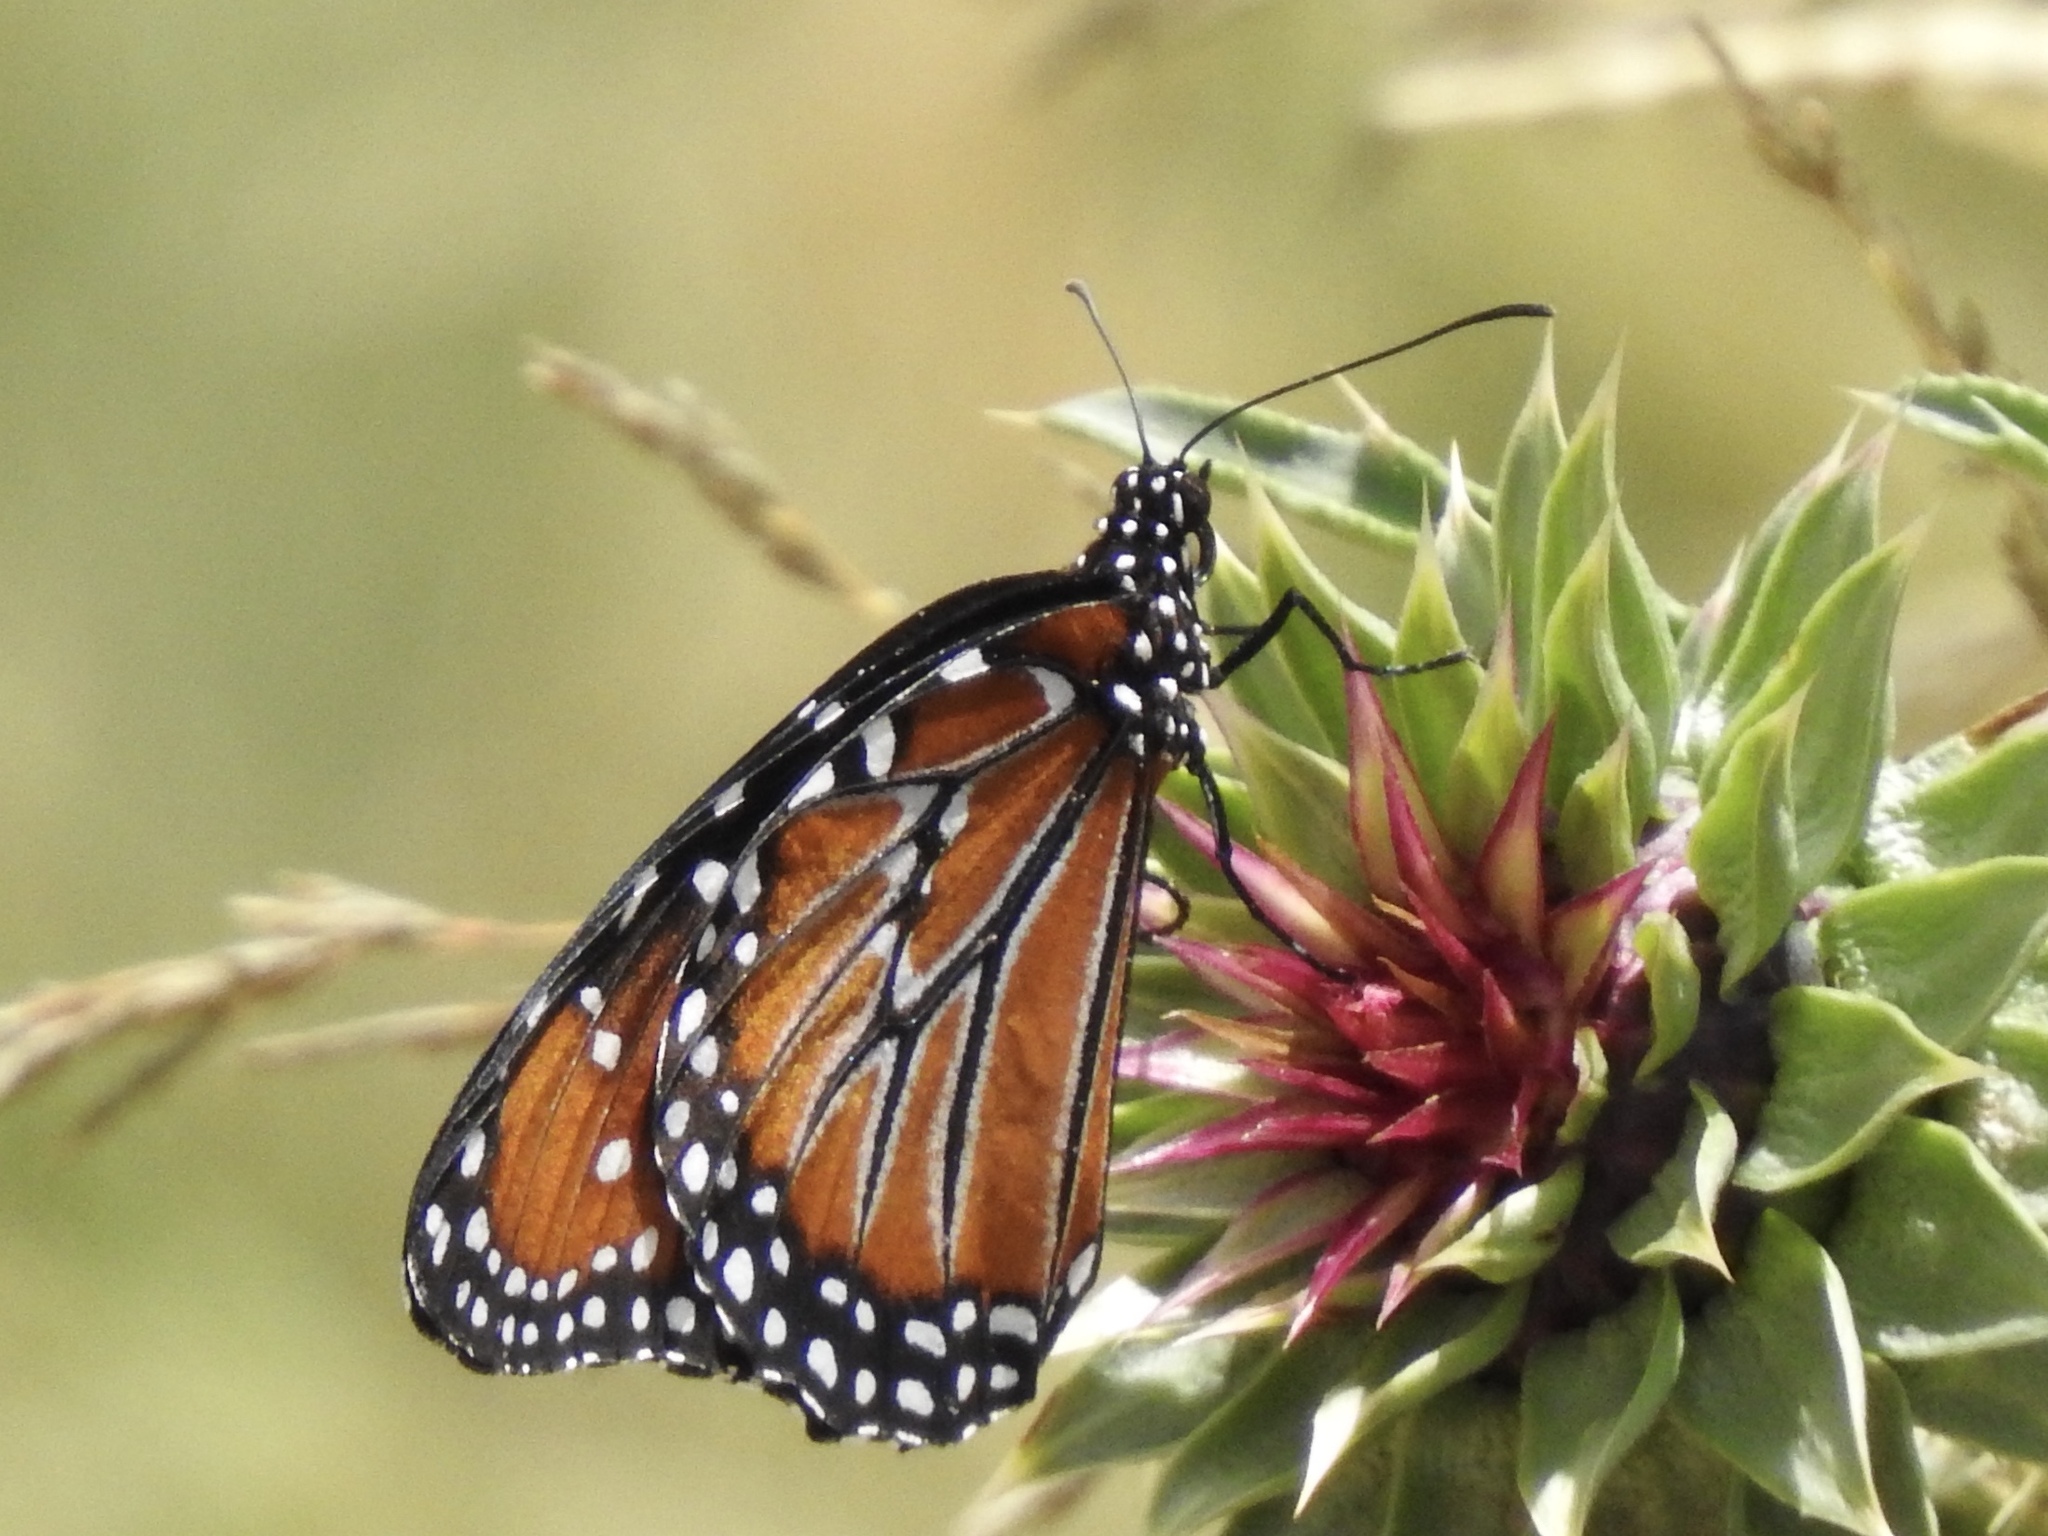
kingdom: Animalia
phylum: Arthropoda
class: Insecta
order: Lepidoptera
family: Nymphalidae
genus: Danaus
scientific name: Danaus gilippus
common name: Queen
